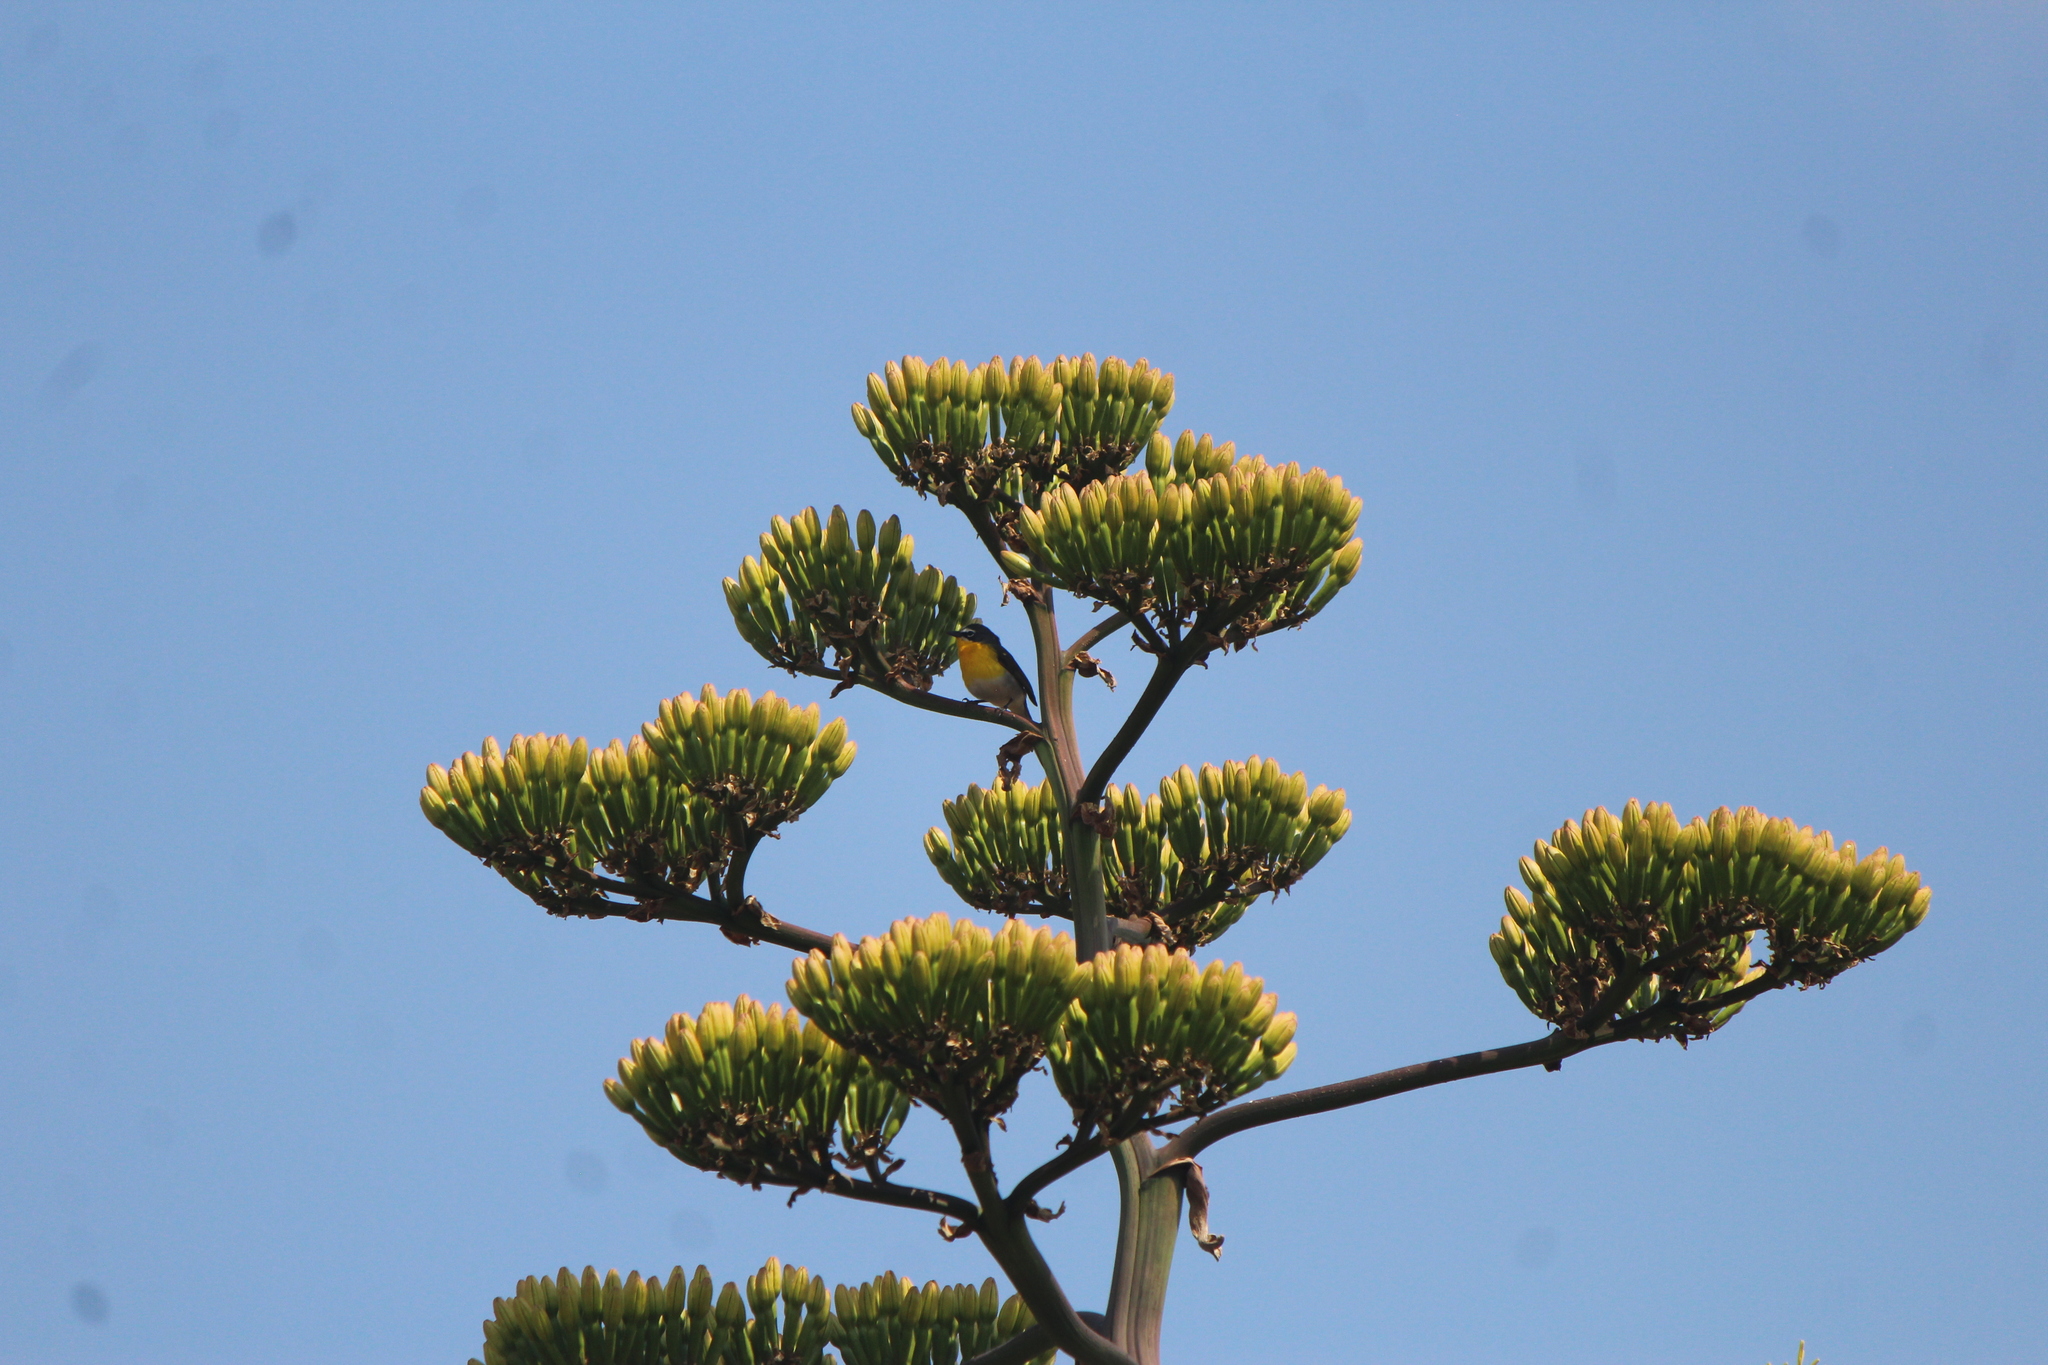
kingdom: Animalia
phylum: Chordata
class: Aves
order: Passeriformes
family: Parulidae
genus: Icteria
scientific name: Icteria virens
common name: Yellow-breasted chat
